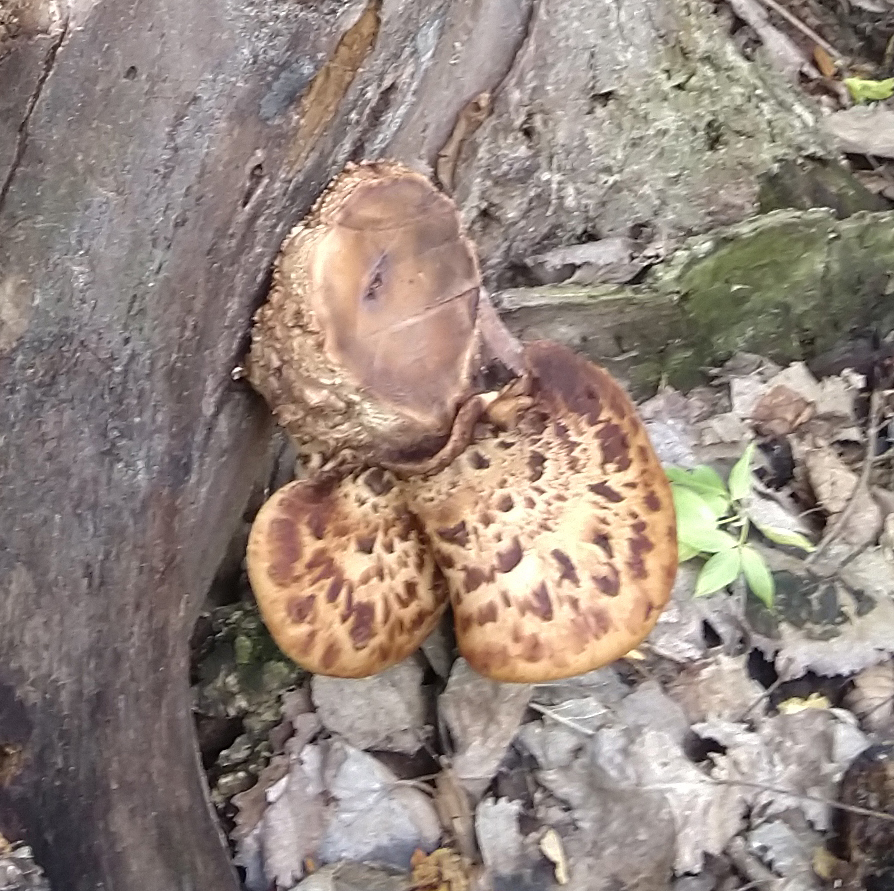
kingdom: Fungi
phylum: Basidiomycota
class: Agaricomycetes
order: Polyporales
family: Polyporaceae
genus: Cerioporus
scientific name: Cerioporus squamosus
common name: Dryad's saddle
